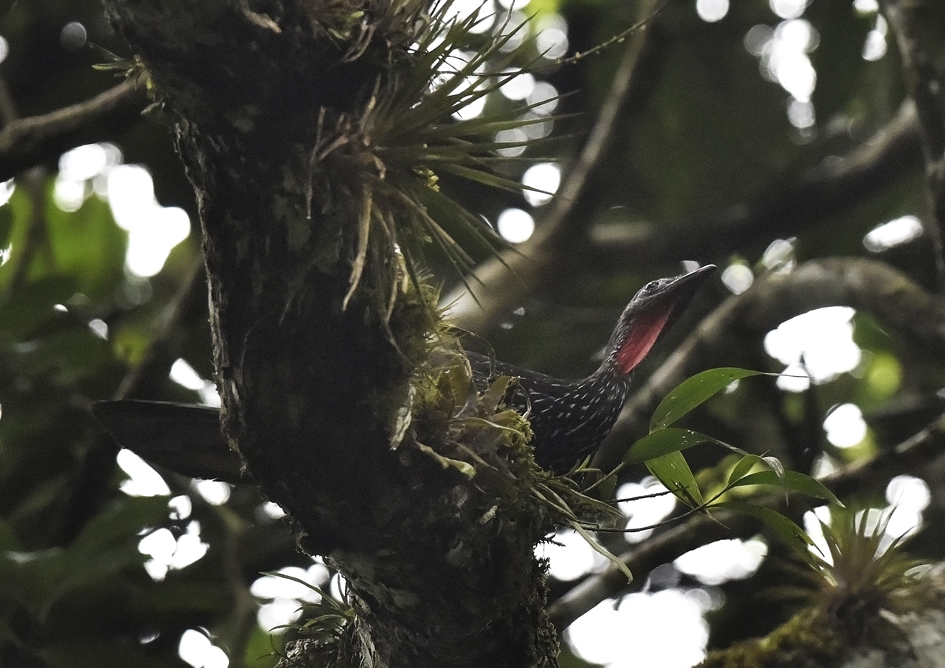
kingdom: Animalia
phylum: Chordata
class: Aves
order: Galliformes
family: Cracidae
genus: Penelope
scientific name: Penelope marail
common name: Marail guan
